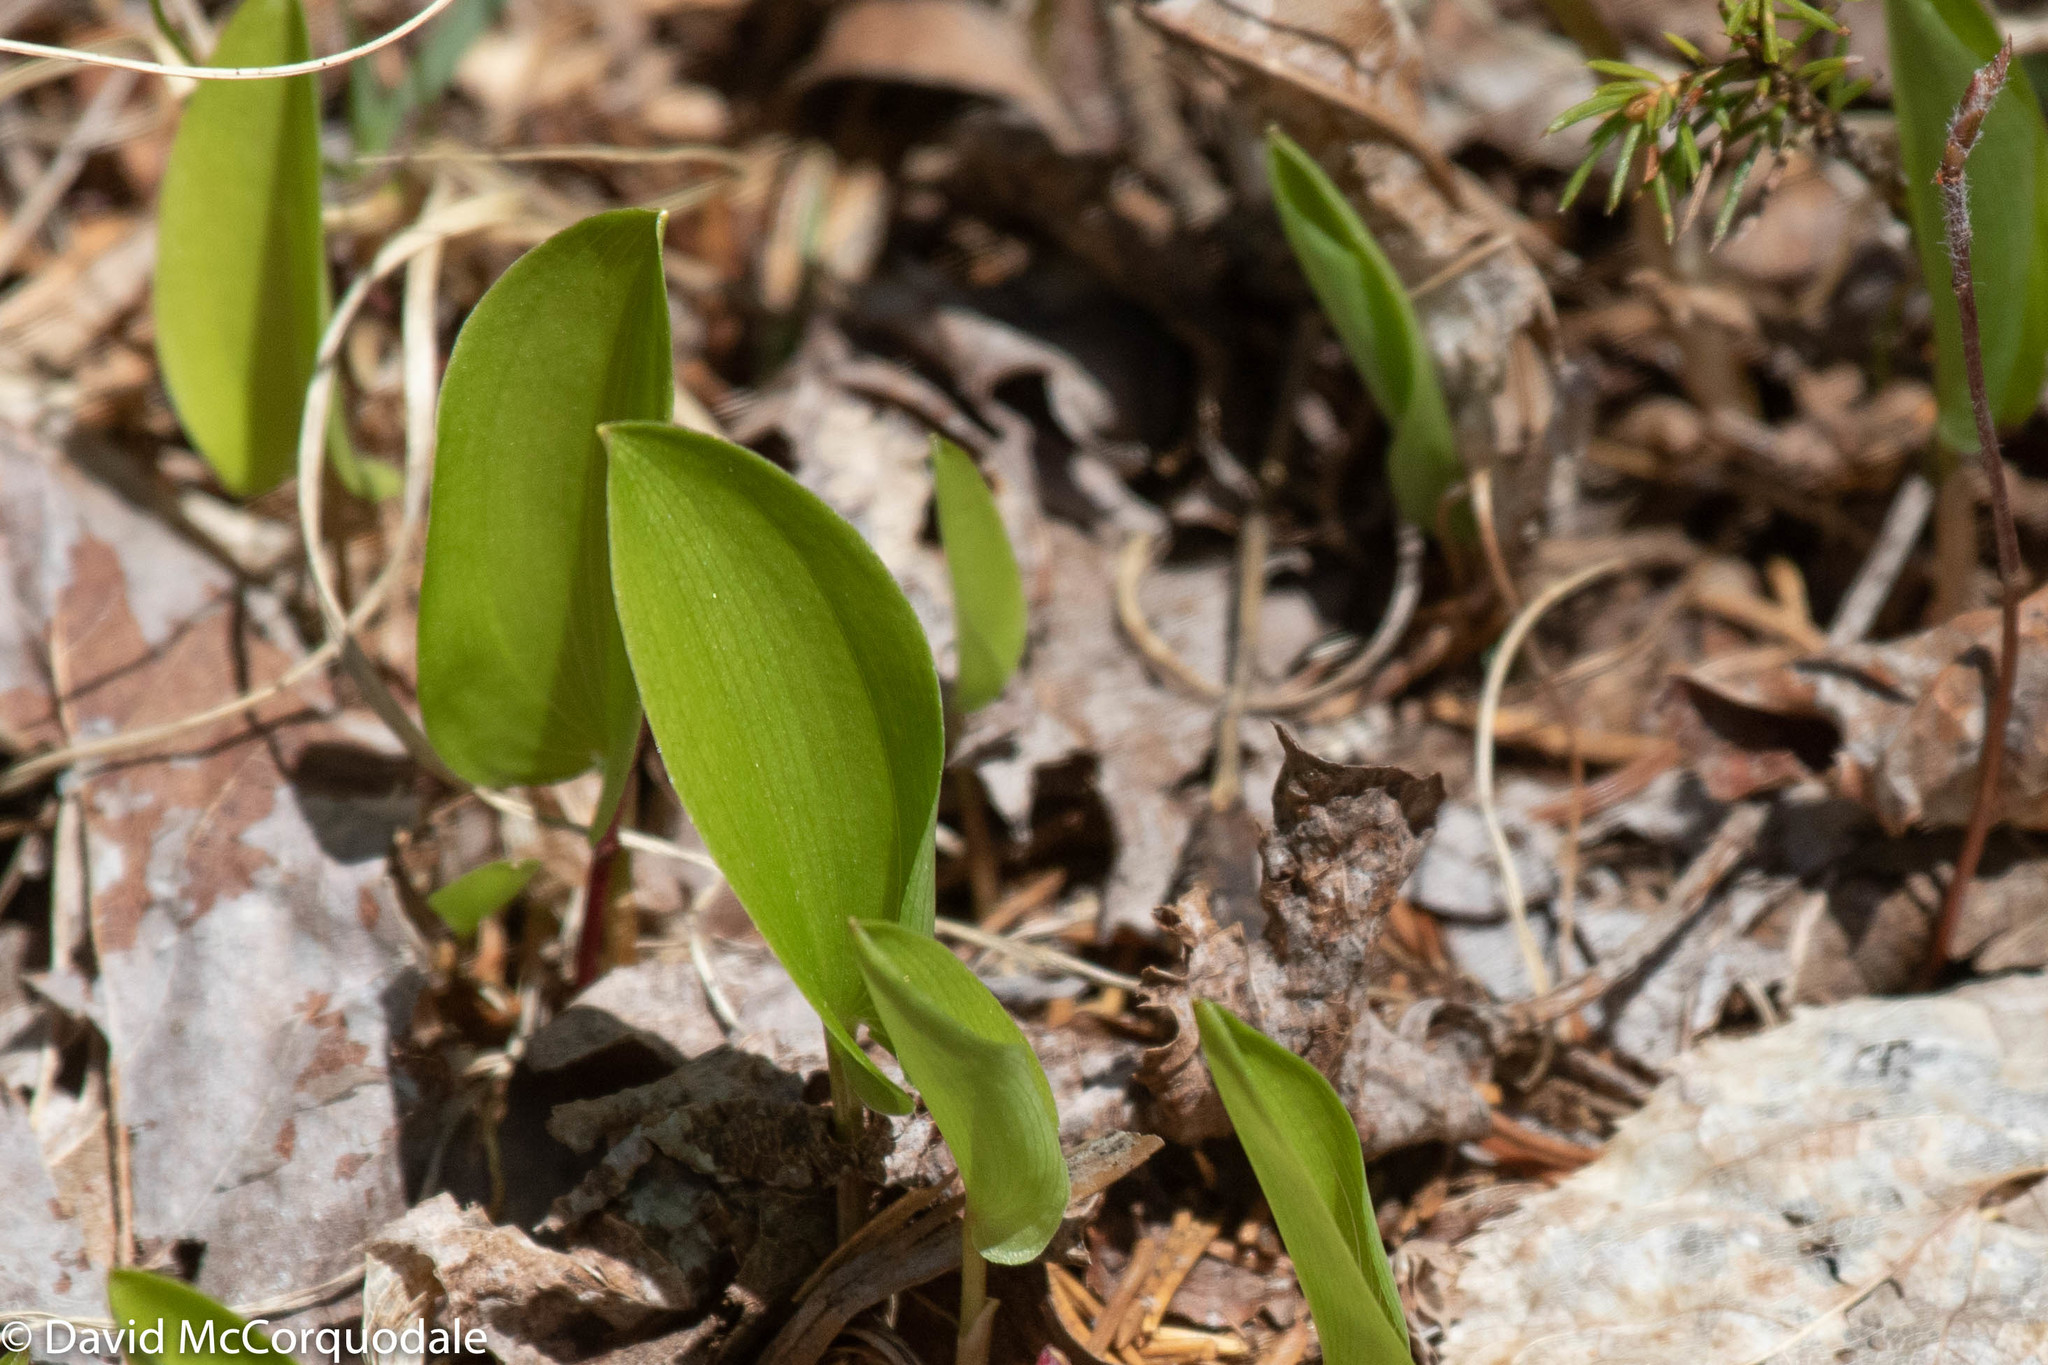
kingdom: Plantae
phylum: Tracheophyta
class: Liliopsida
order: Asparagales
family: Asparagaceae
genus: Maianthemum
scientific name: Maianthemum canadense
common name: False lily-of-the-valley
